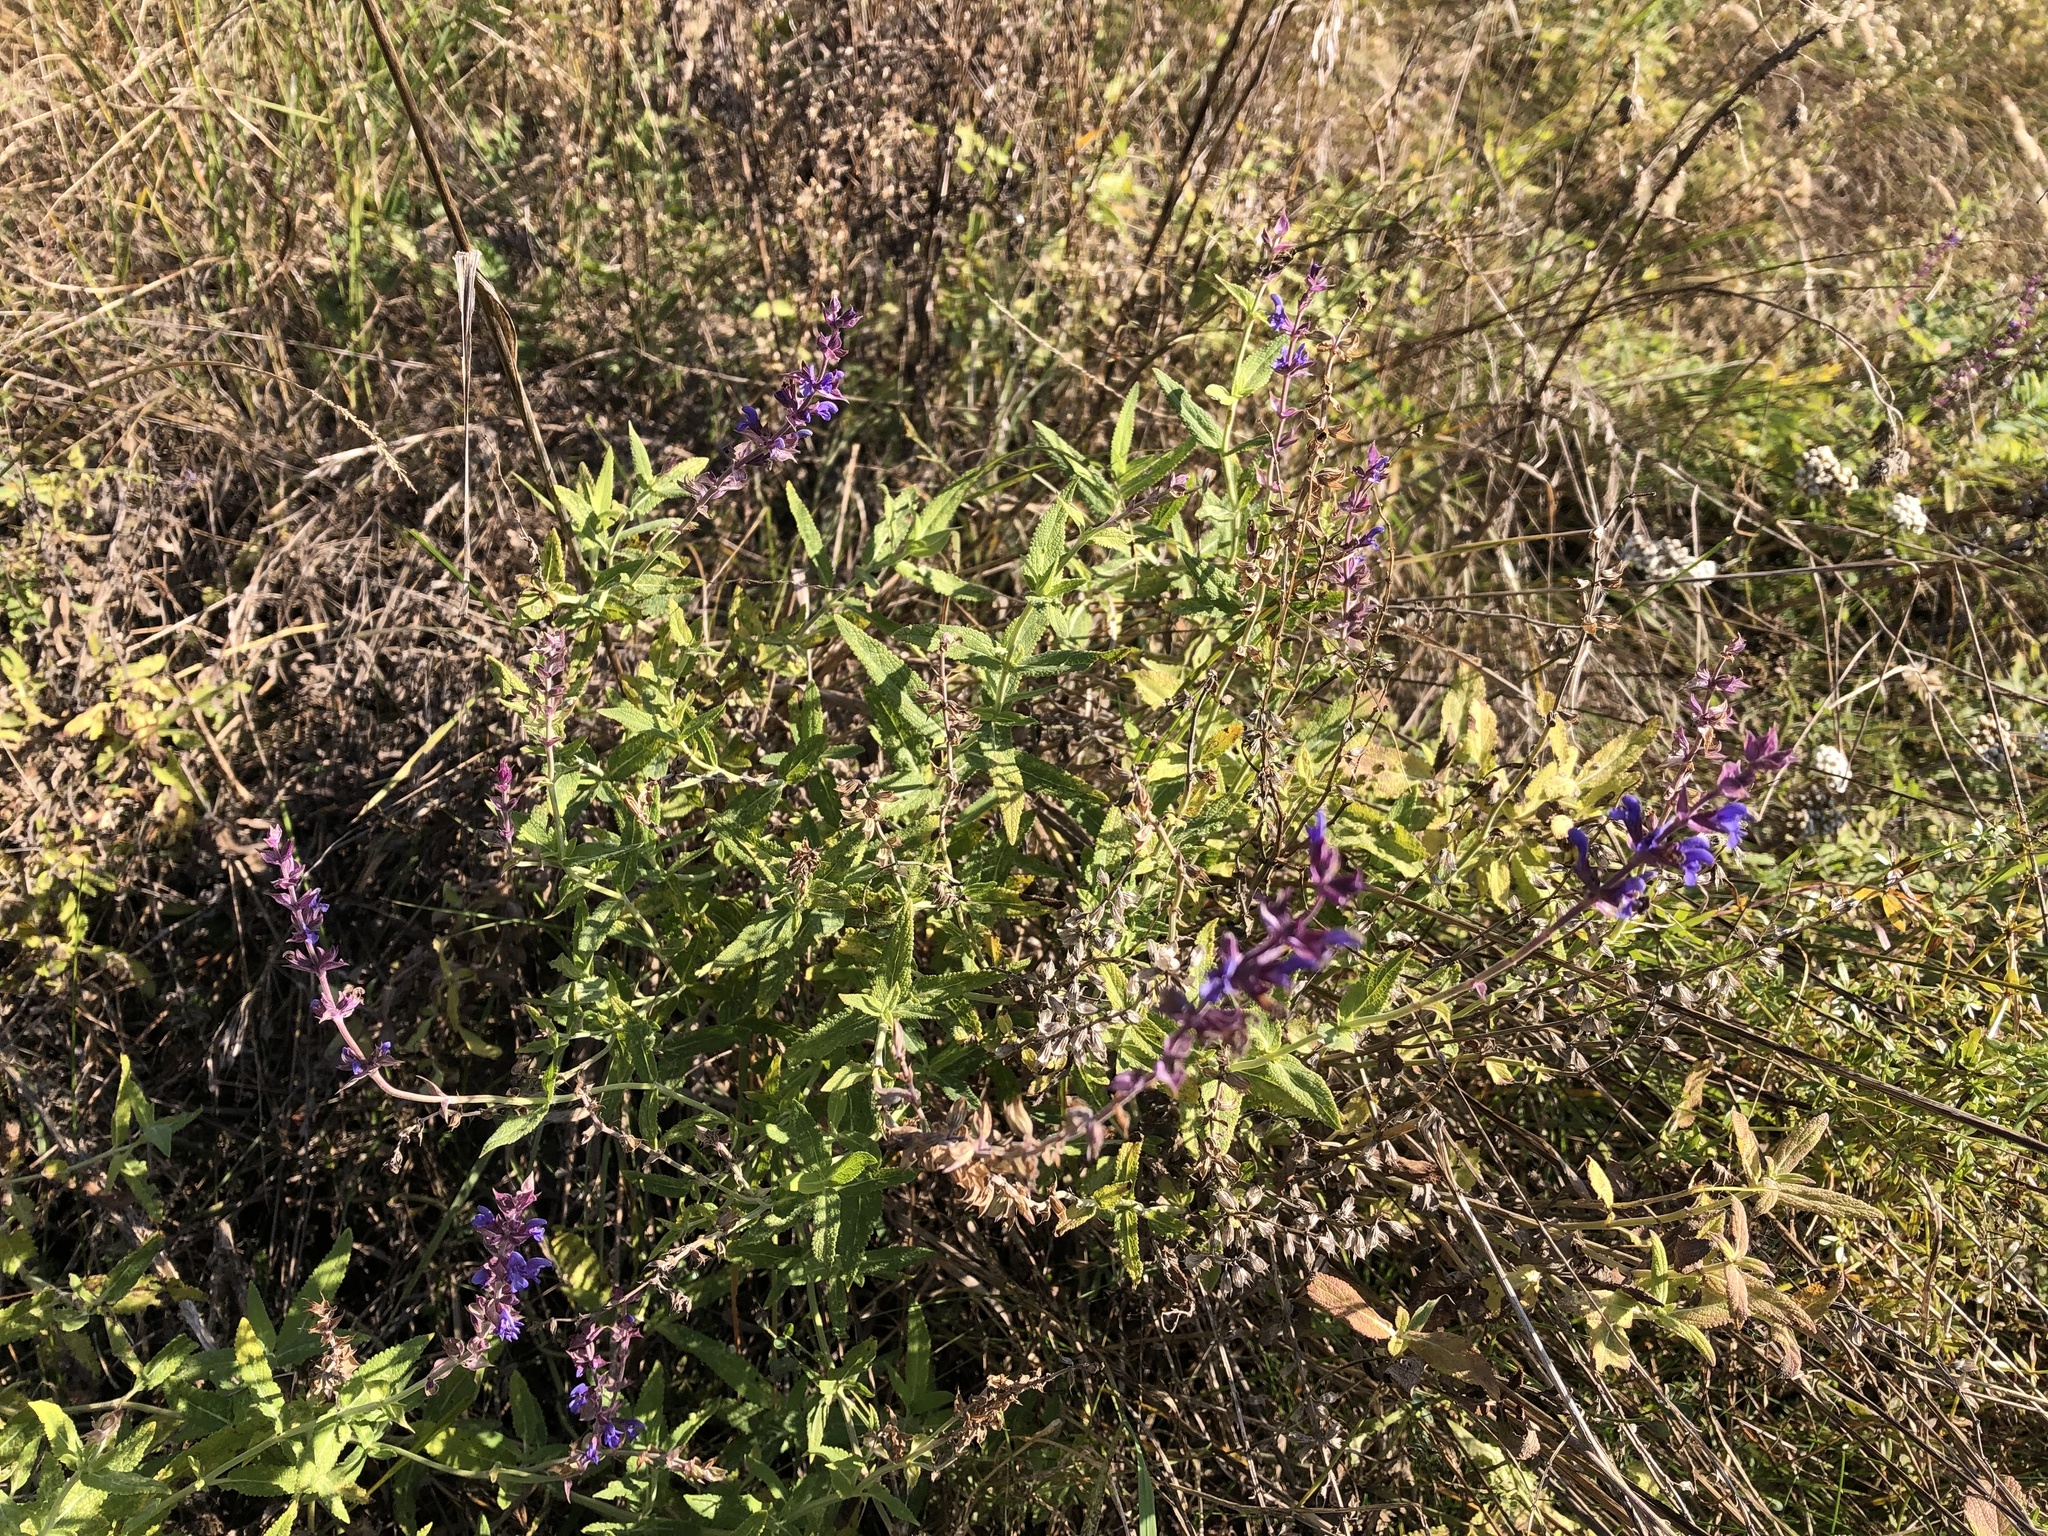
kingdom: Plantae
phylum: Tracheophyta
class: Magnoliopsida
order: Lamiales
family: Lamiaceae
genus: Salvia
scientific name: Salvia nemorosa
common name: Balkan clary
